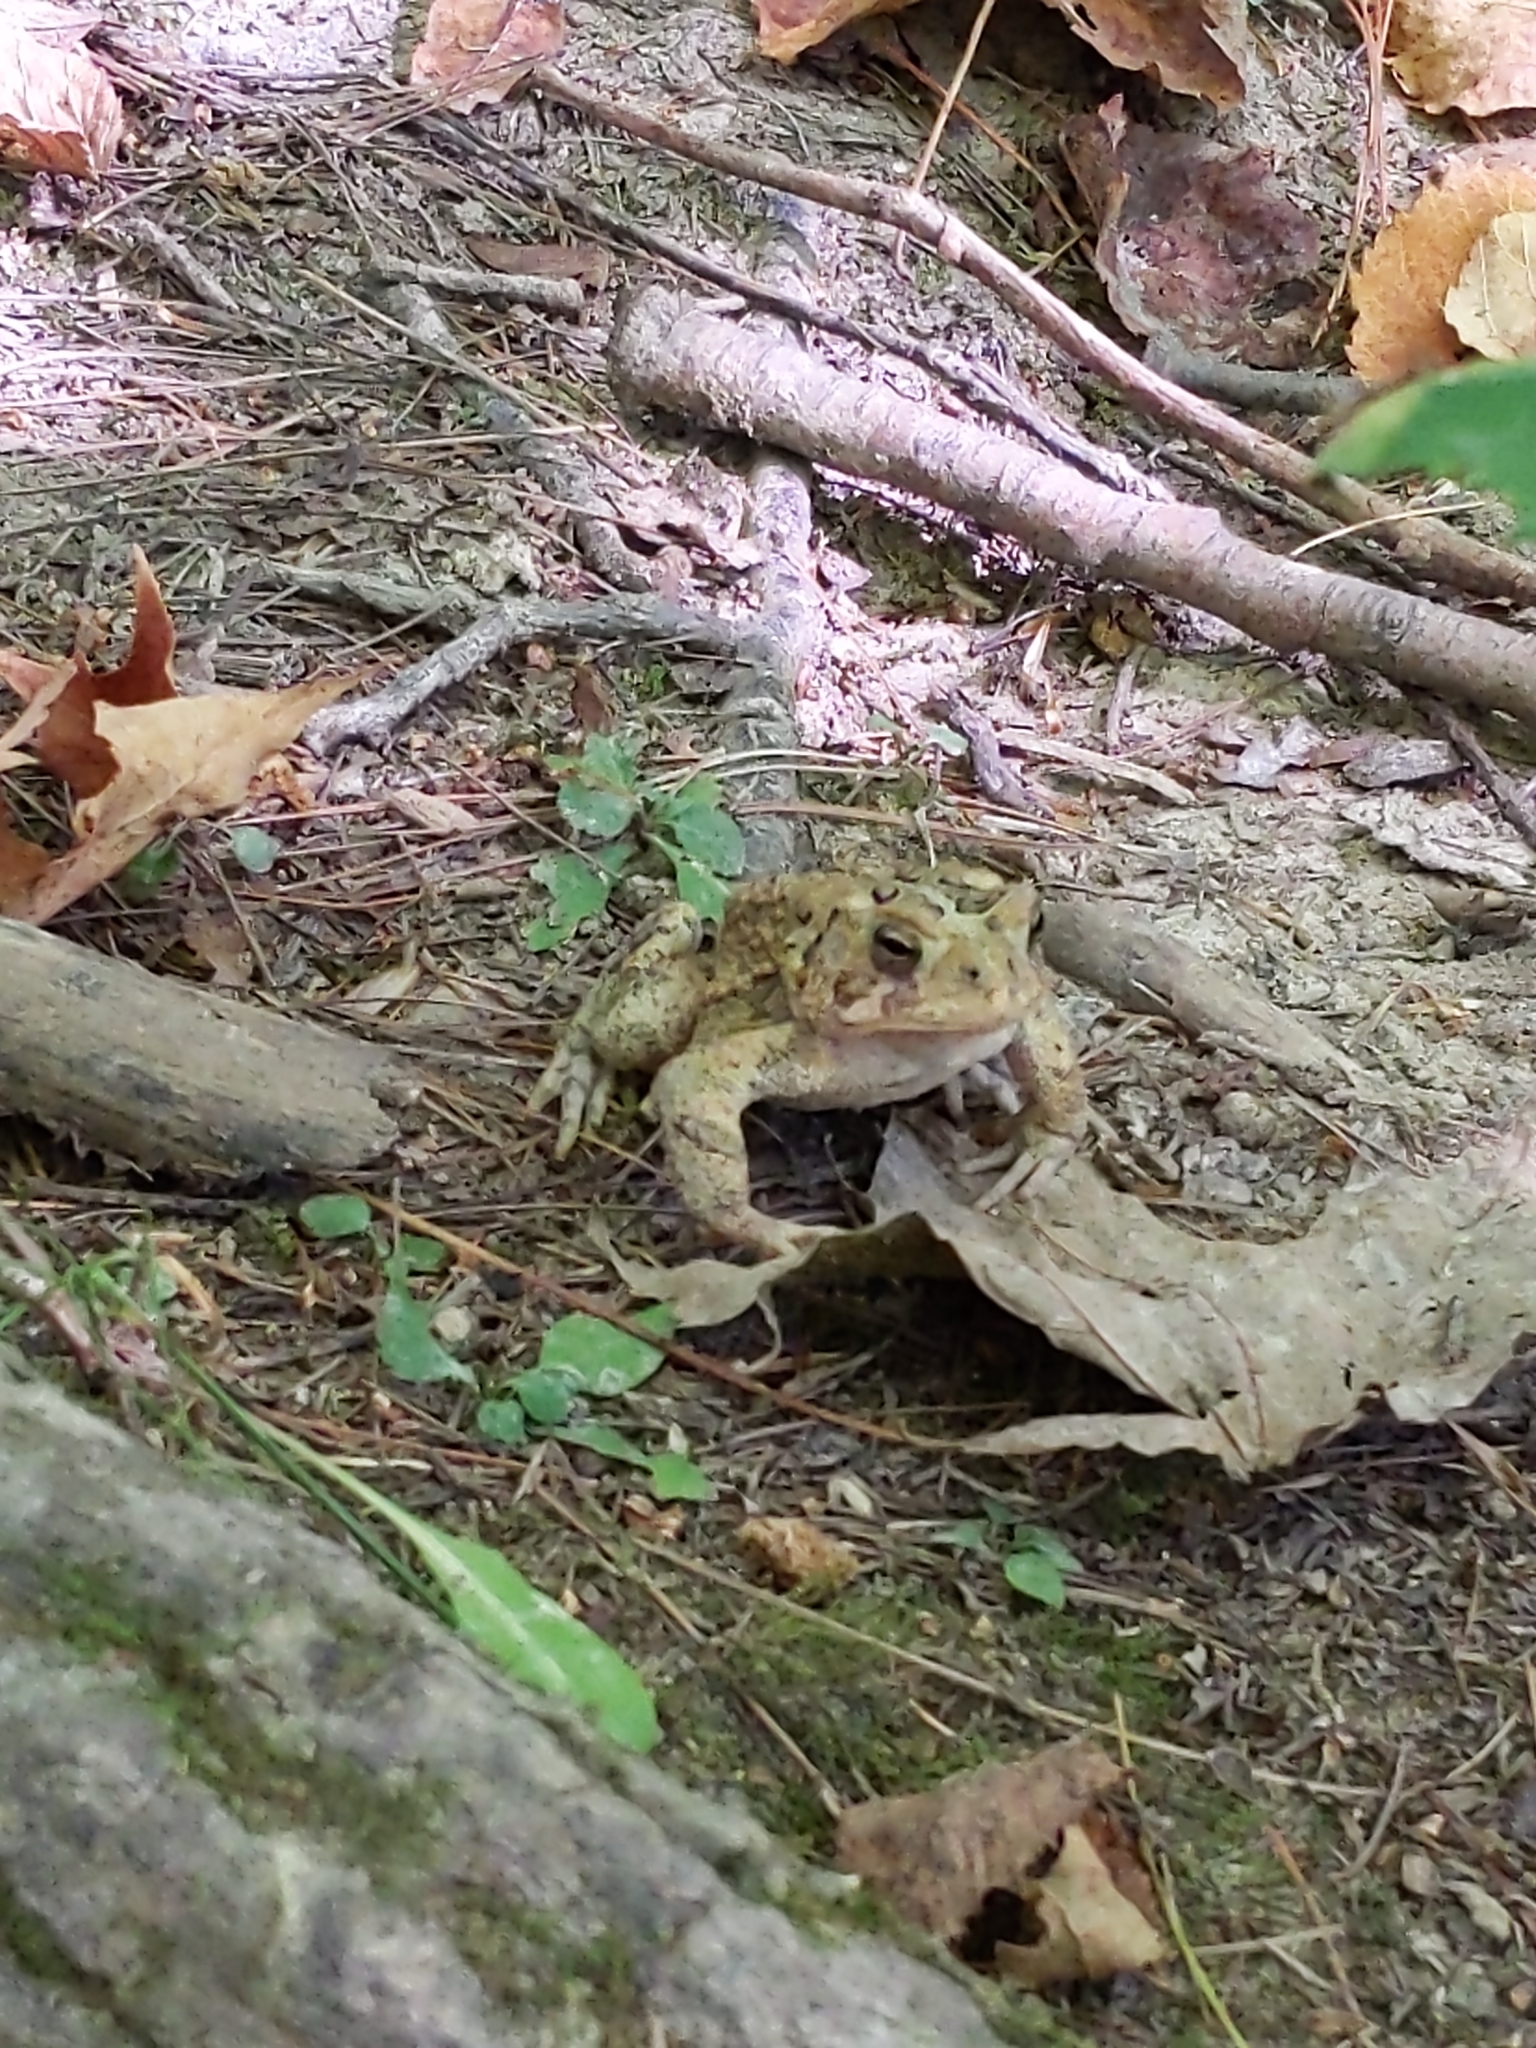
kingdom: Animalia
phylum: Chordata
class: Amphibia
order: Anura
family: Bufonidae
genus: Anaxyrus
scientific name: Anaxyrus americanus
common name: American toad
